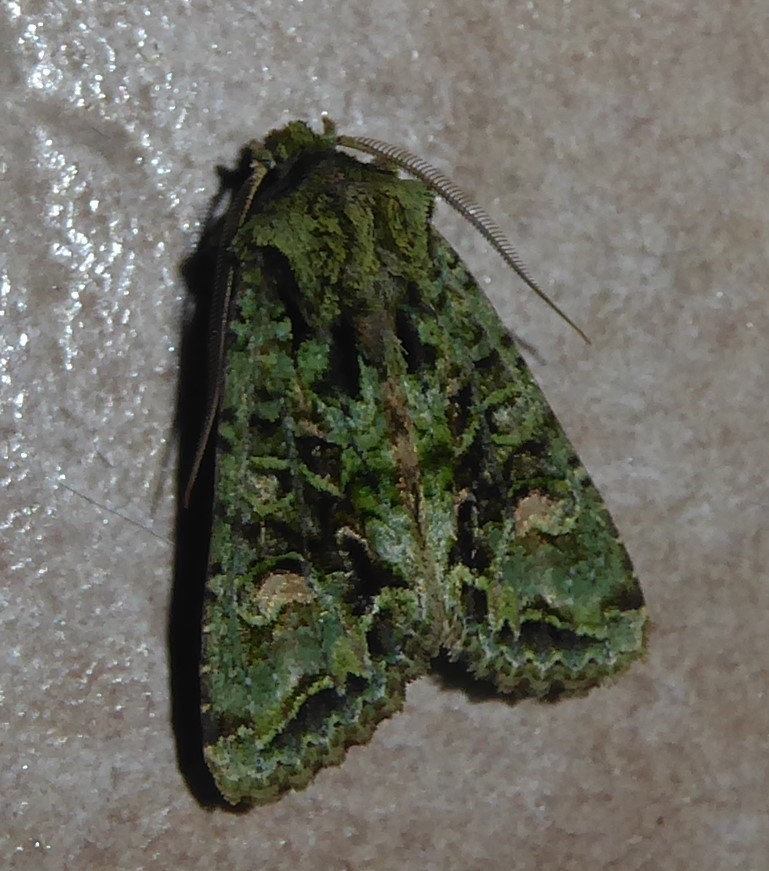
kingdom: Animalia
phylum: Arthropoda
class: Insecta
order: Lepidoptera
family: Noctuidae
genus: Ichneutica
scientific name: Ichneutica
